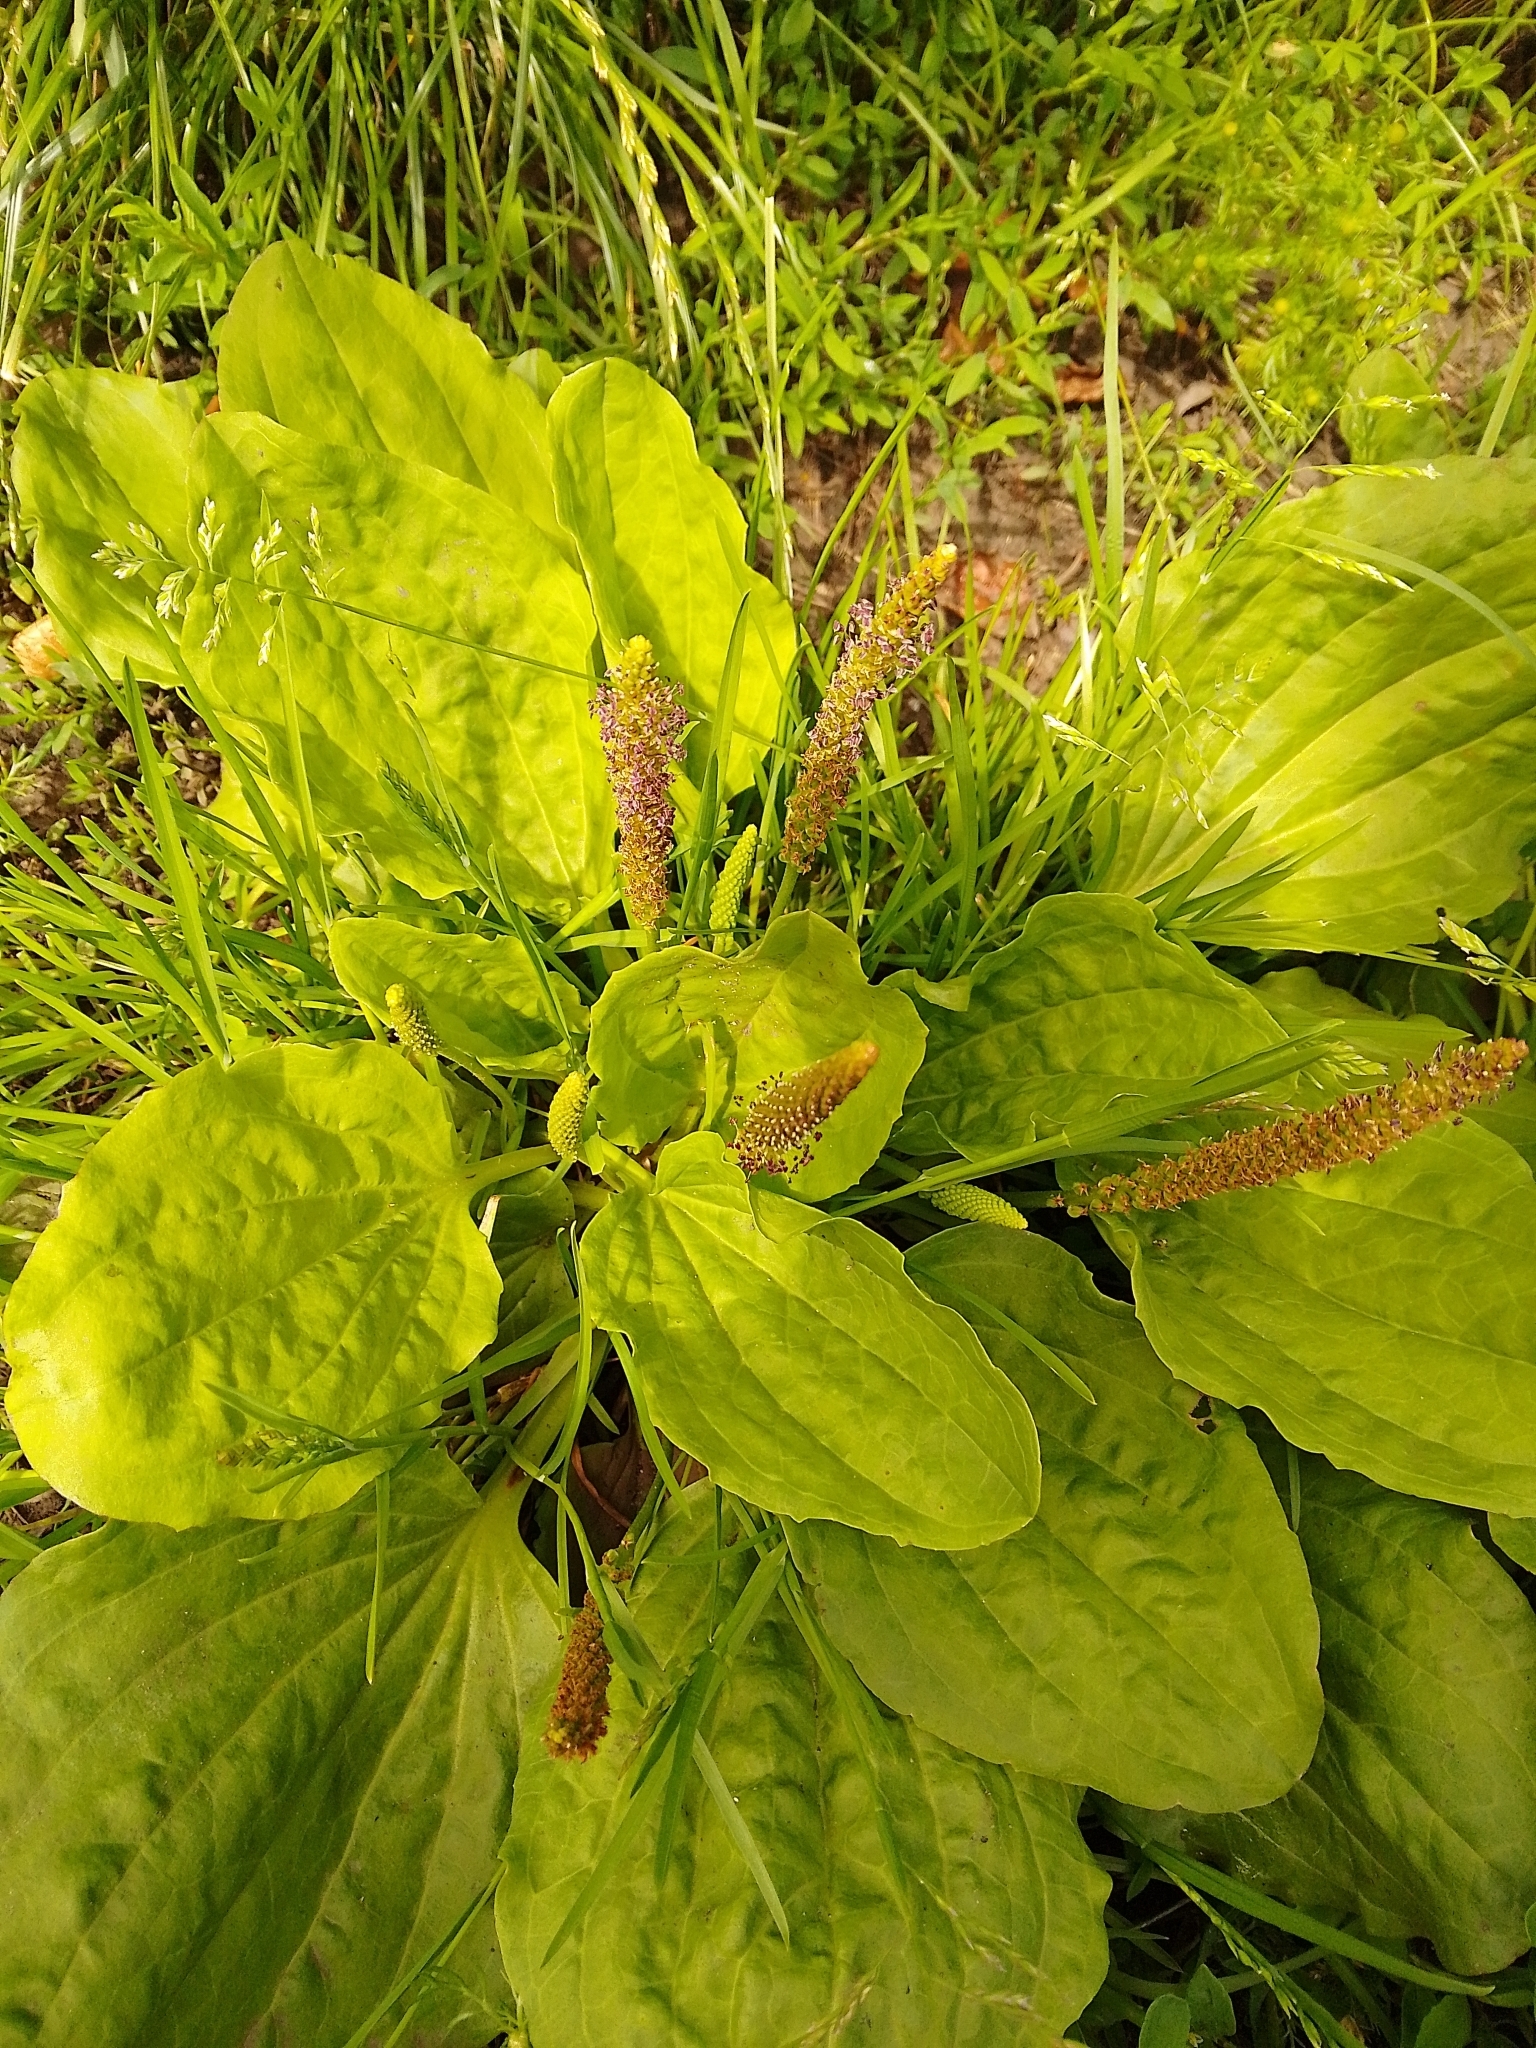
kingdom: Plantae
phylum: Tracheophyta
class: Magnoliopsida
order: Lamiales
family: Plantaginaceae
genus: Plantago
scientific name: Plantago major
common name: Common plantain
